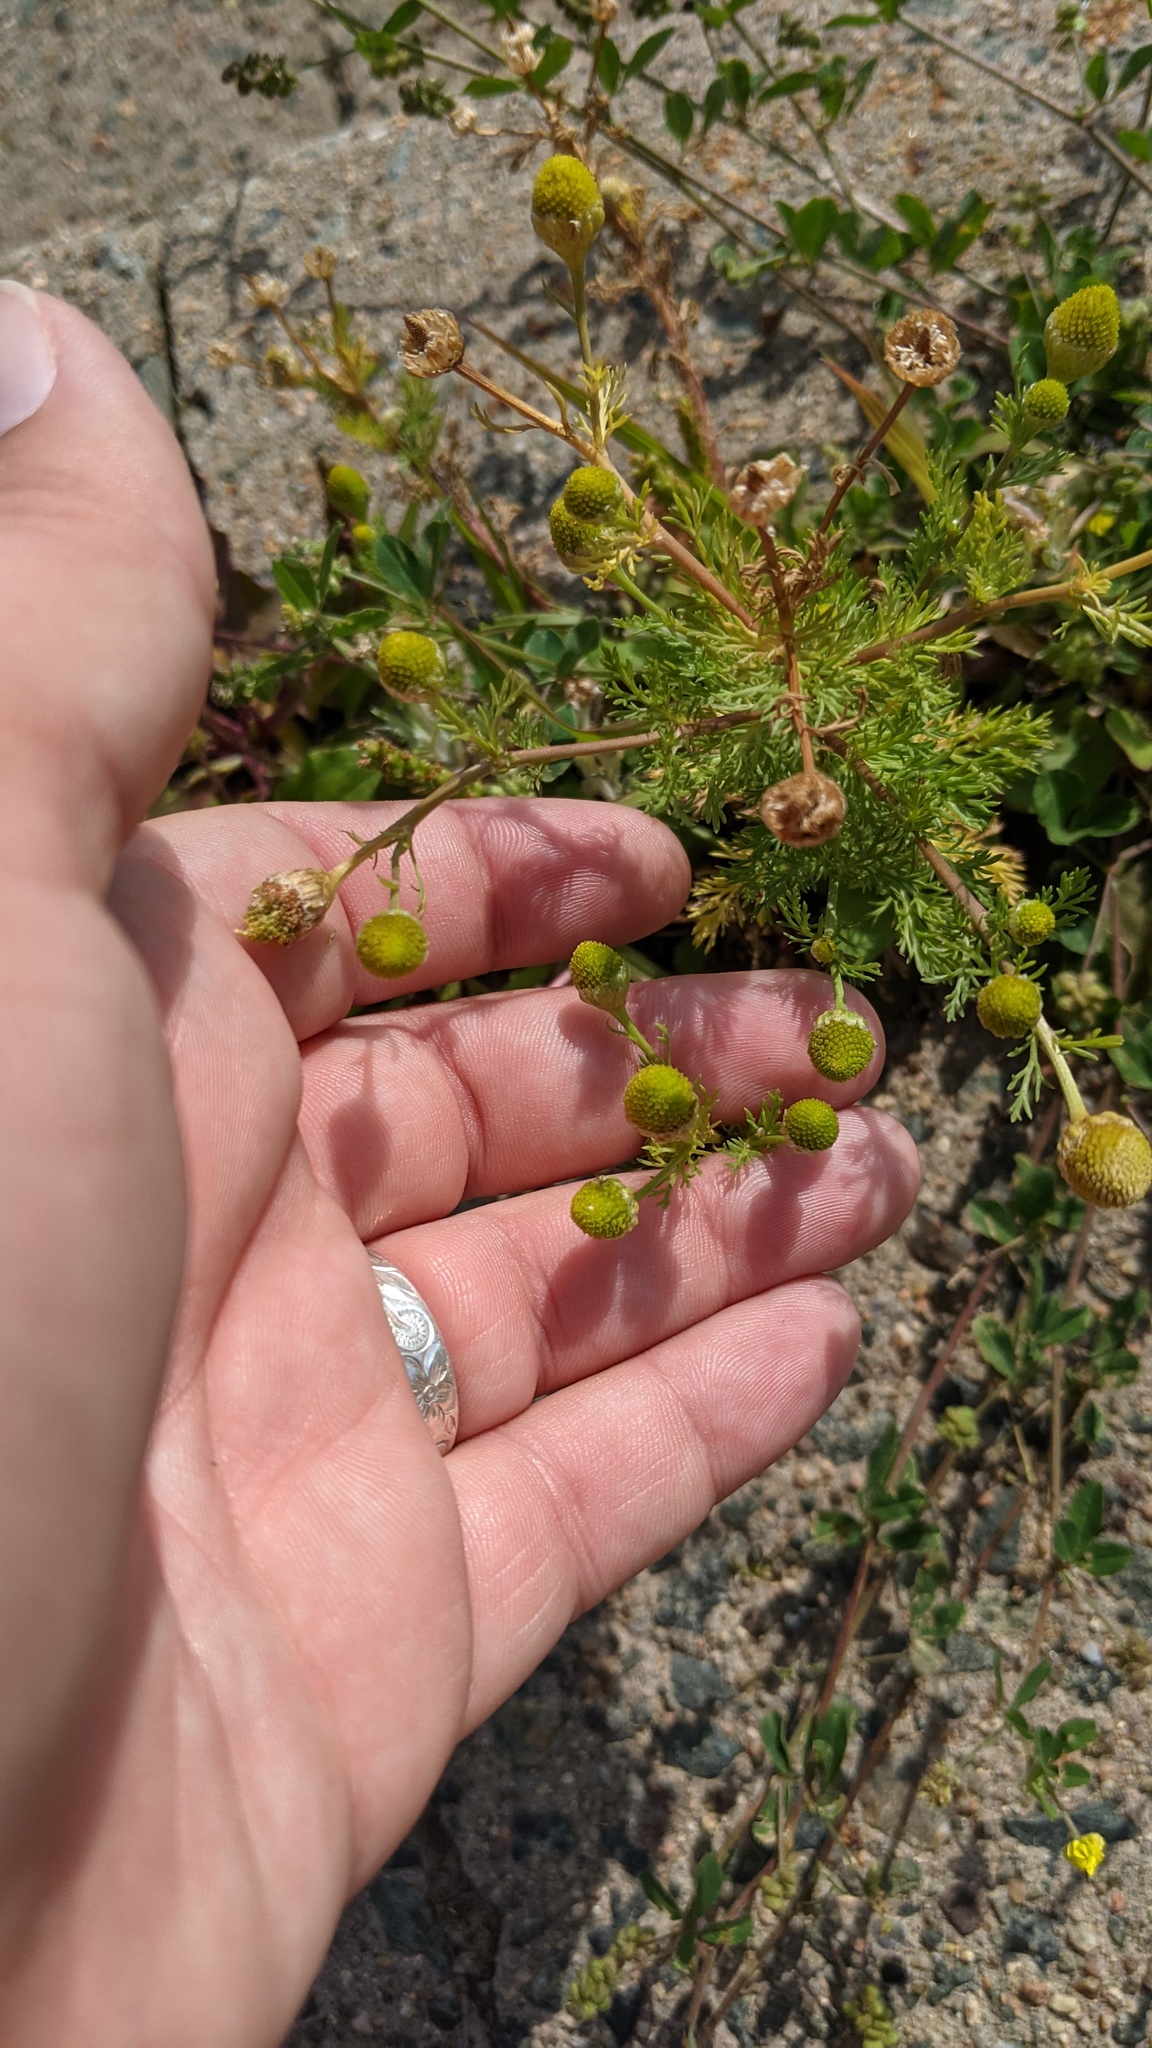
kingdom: Plantae
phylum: Tracheophyta
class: Magnoliopsida
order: Asterales
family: Asteraceae
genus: Matricaria
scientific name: Matricaria discoidea
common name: Disc mayweed
